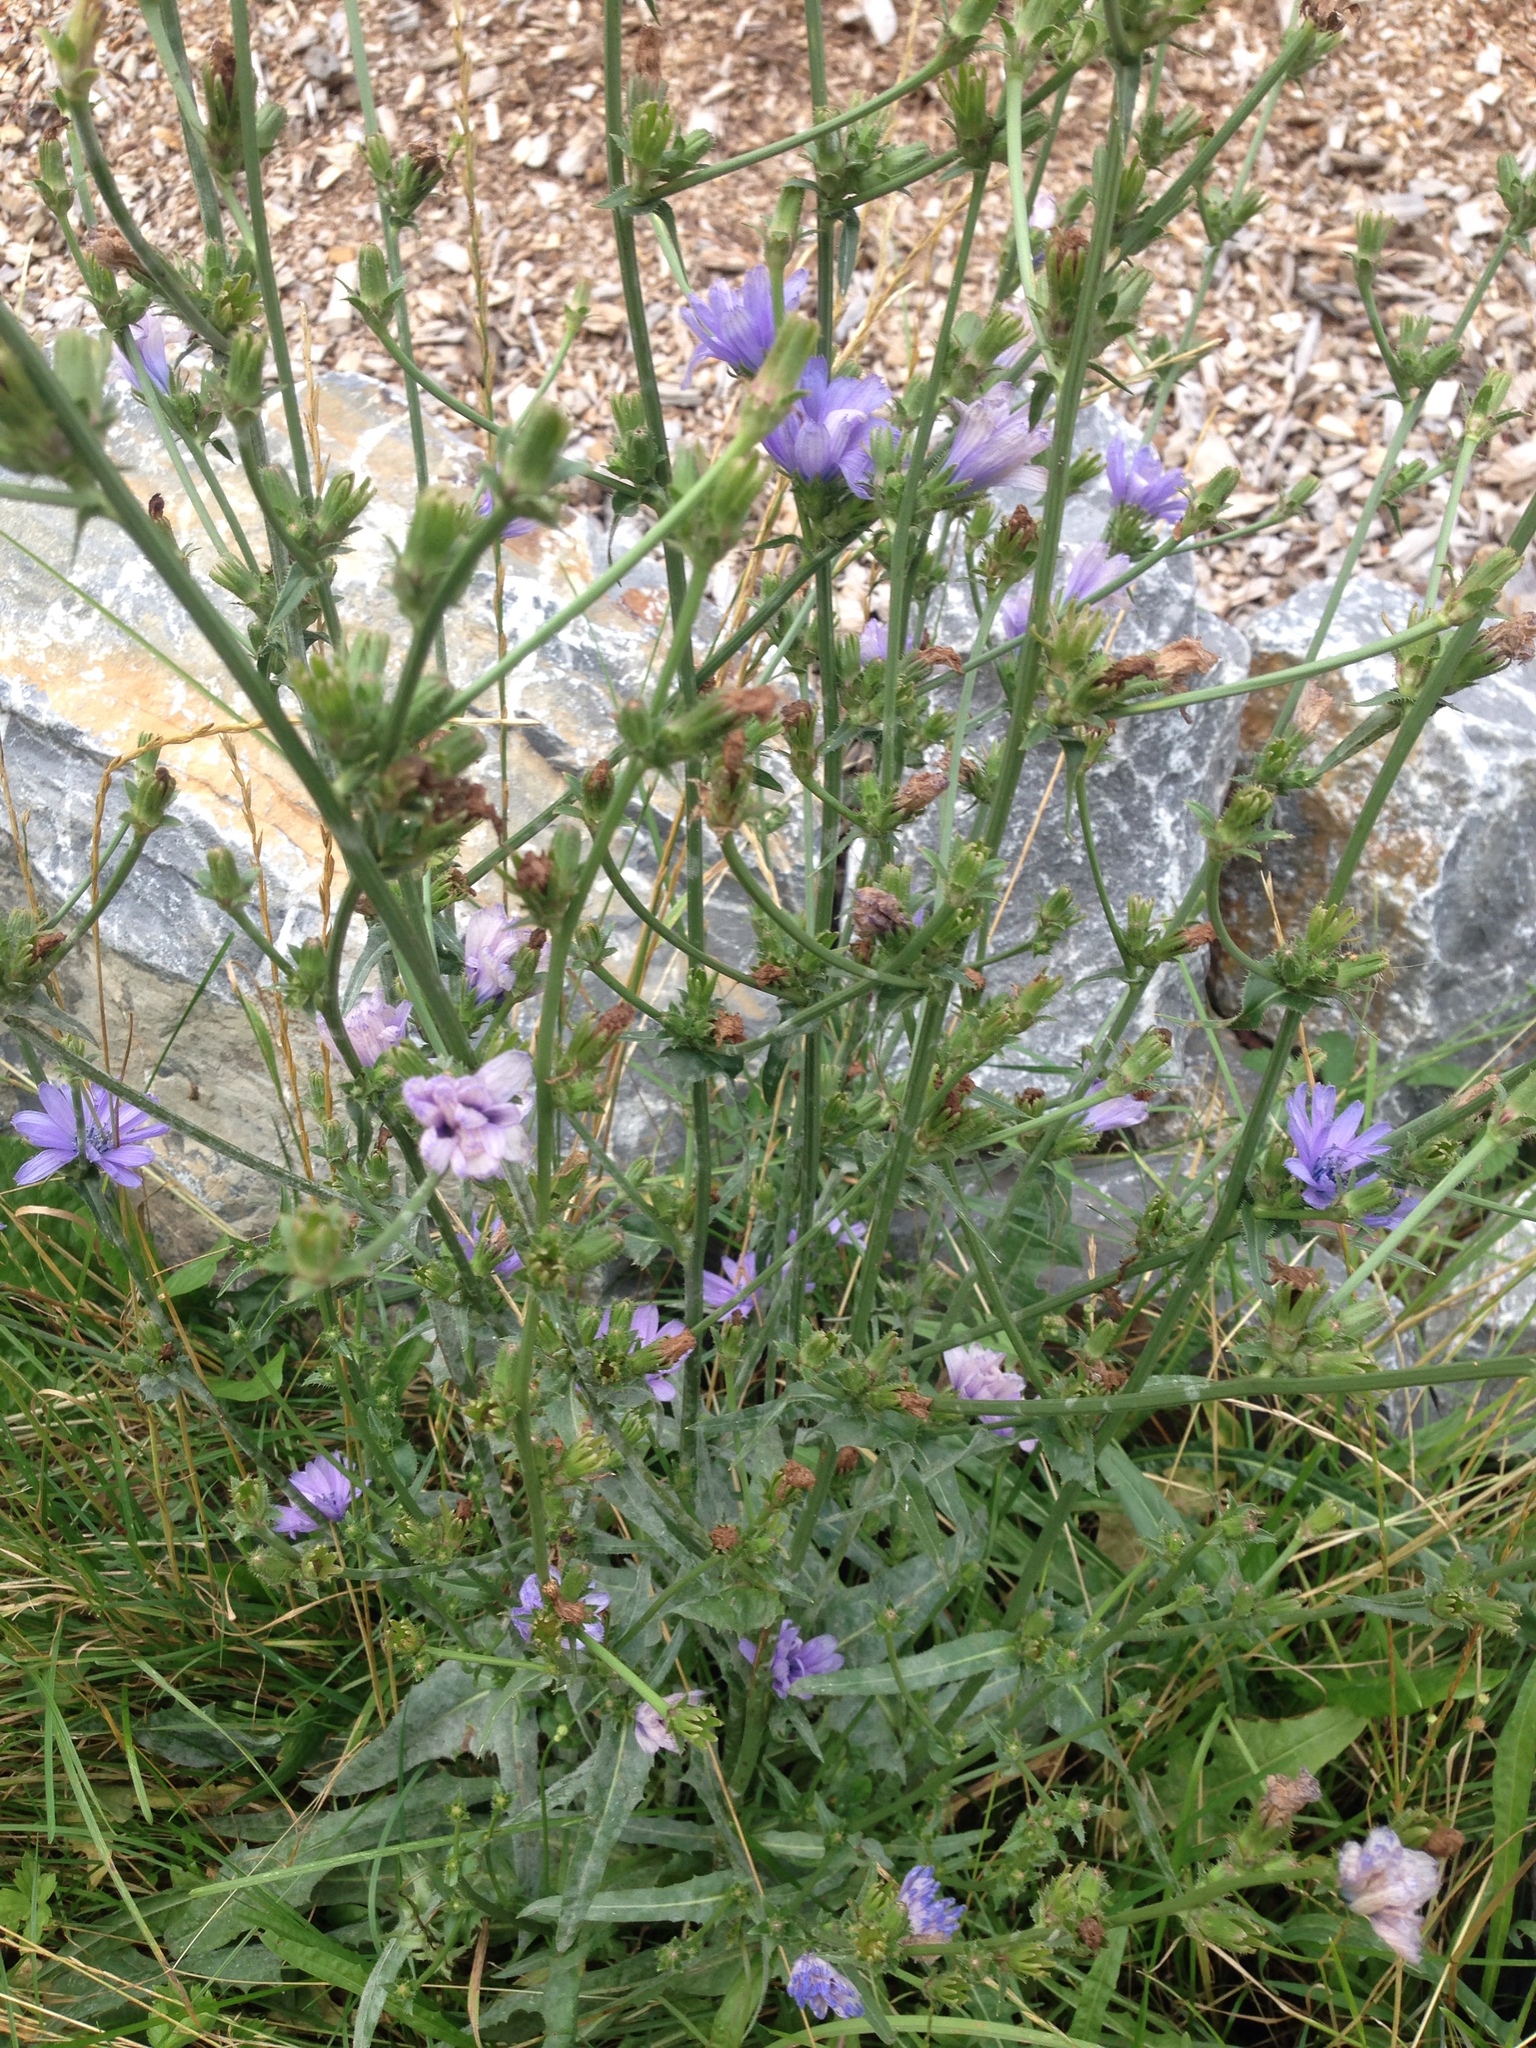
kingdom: Plantae
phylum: Tracheophyta
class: Magnoliopsida
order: Asterales
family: Asteraceae
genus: Cichorium
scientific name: Cichorium intybus
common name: Chicory
